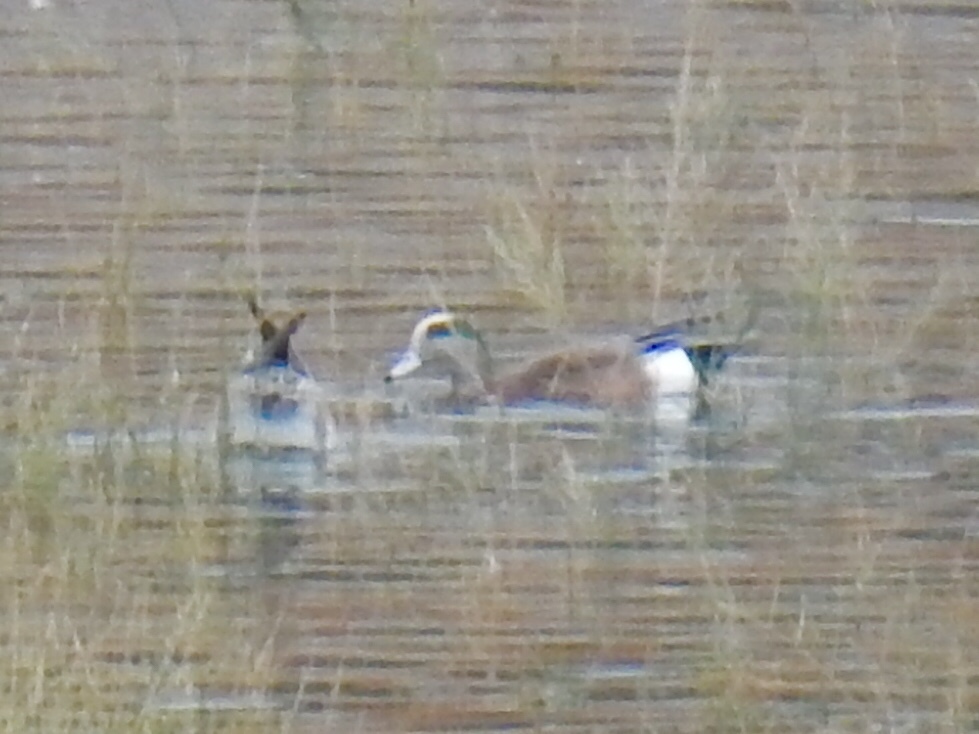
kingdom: Animalia
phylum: Chordata
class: Aves
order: Anseriformes
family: Anatidae
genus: Mareca
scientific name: Mareca americana
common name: American wigeon
